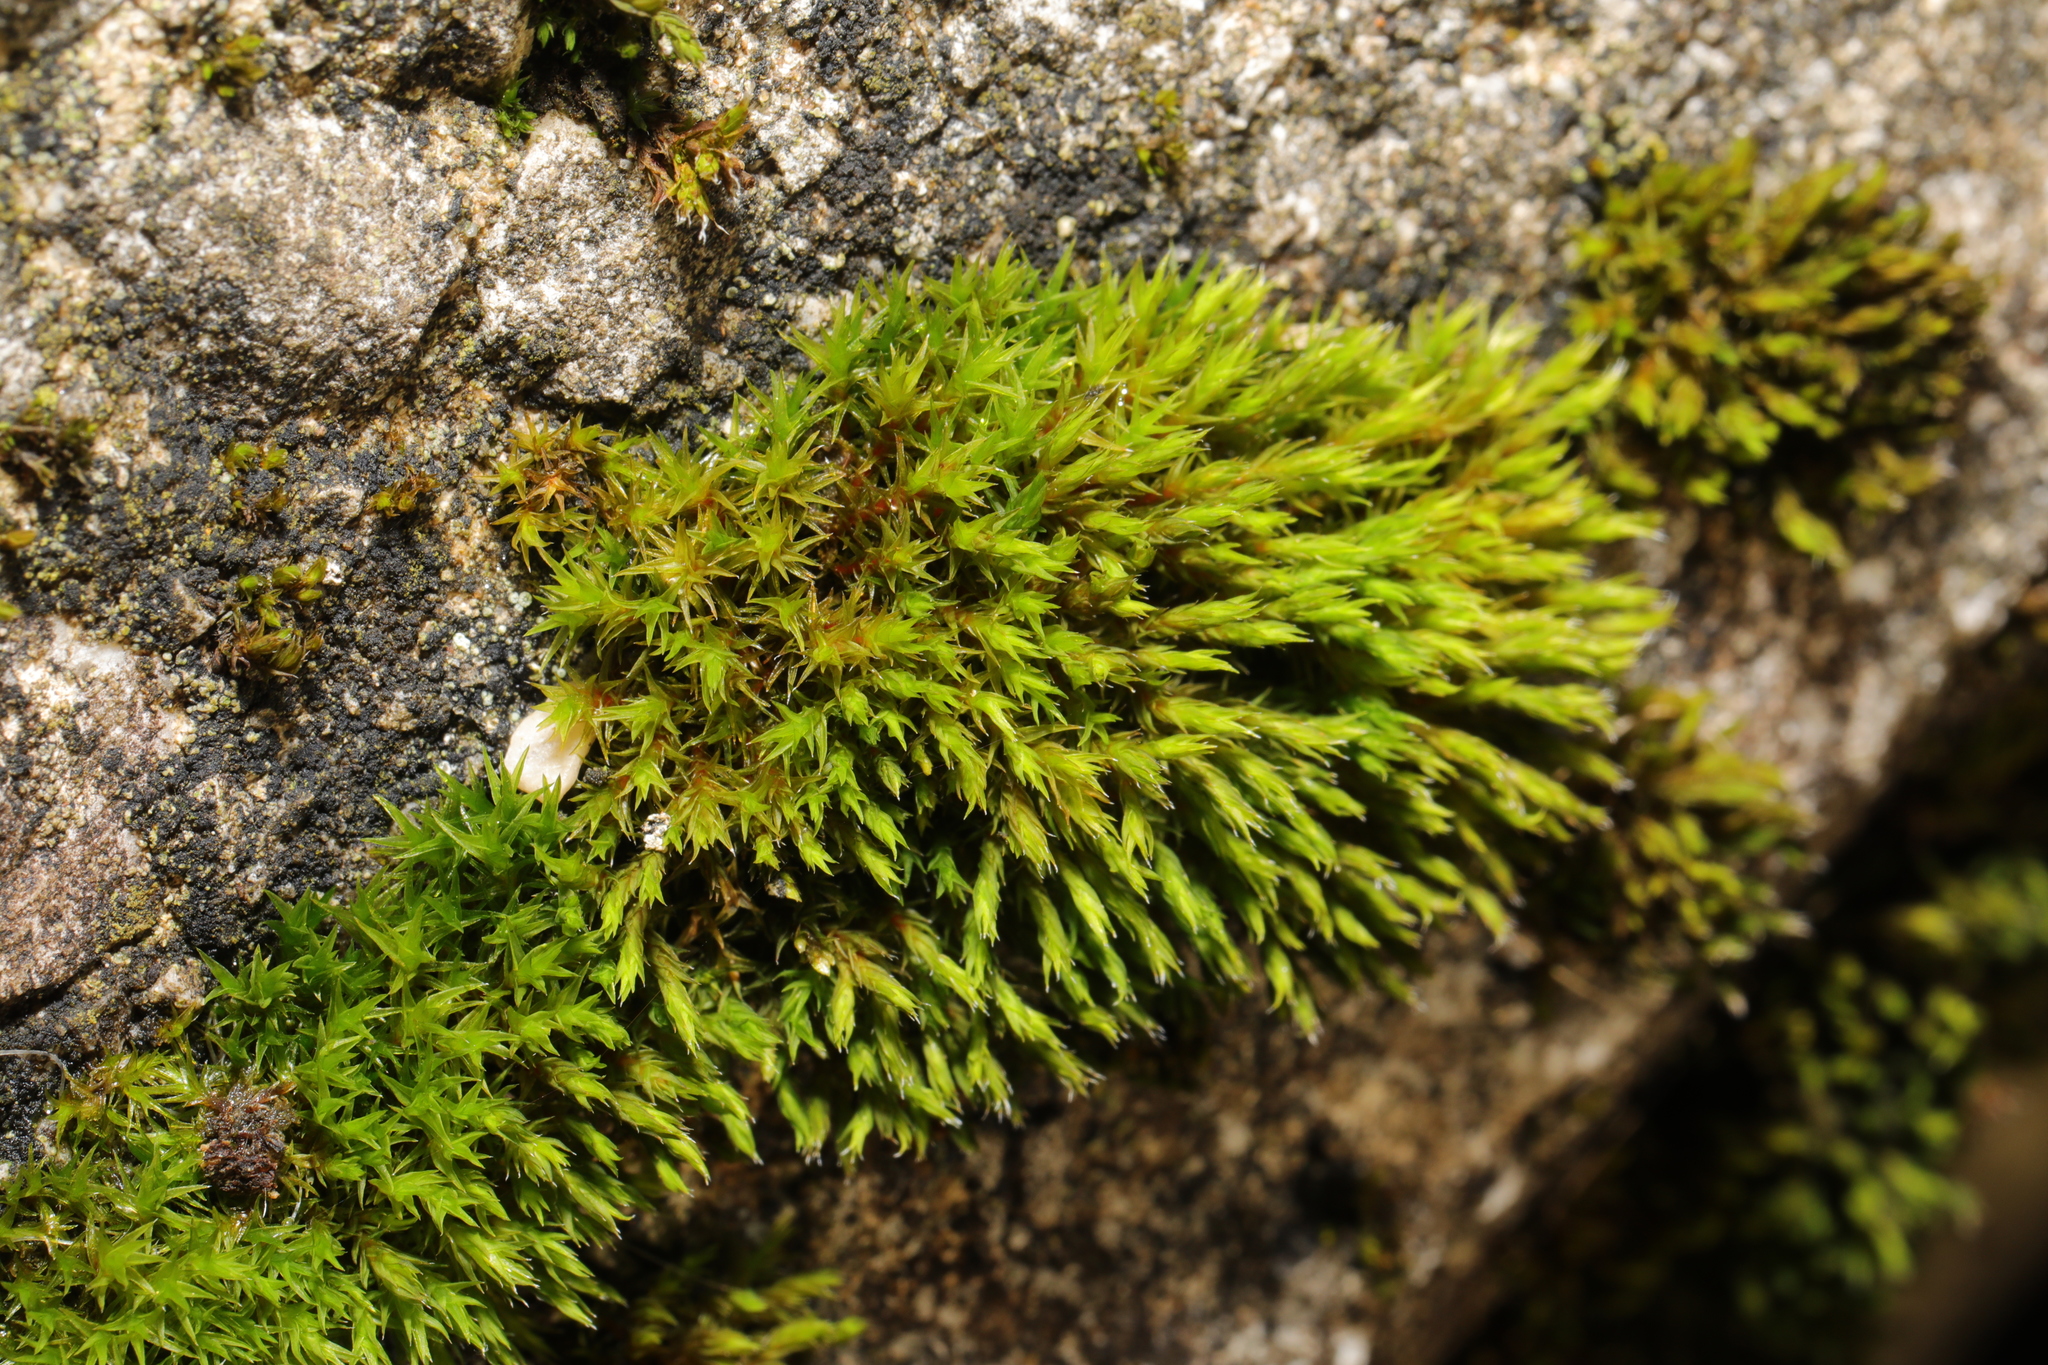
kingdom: Plantae
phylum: Bryophyta
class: Bryopsida
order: Orthotrichales
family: Orthotrichaceae
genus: Orthotrichum
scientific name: Orthotrichum anomalum
